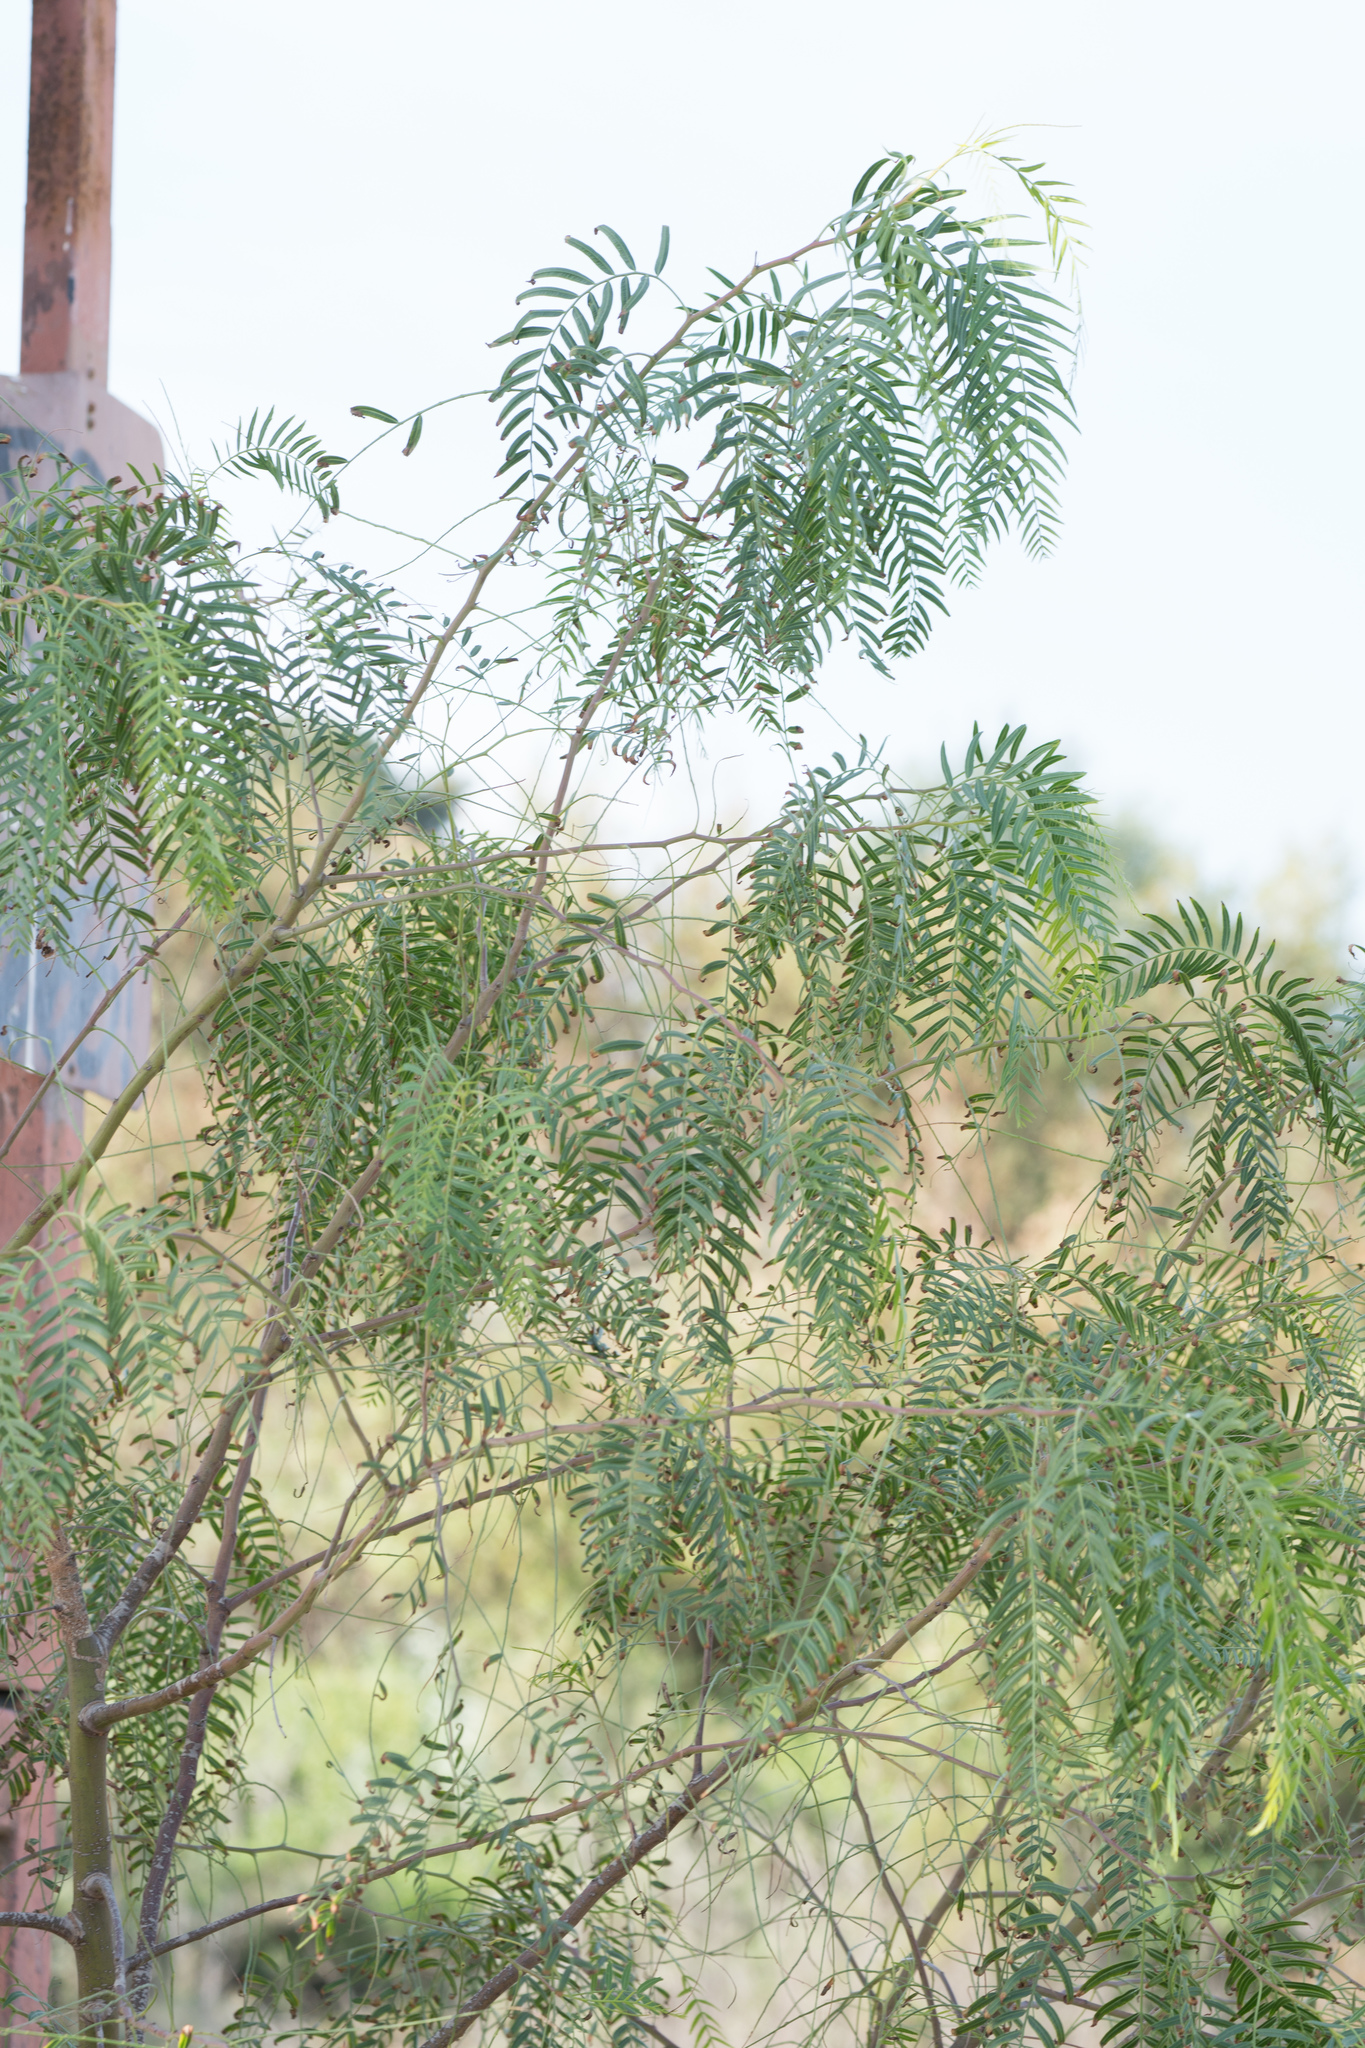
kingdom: Plantae
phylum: Tracheophyta
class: Magnoliopsida
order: Sapindales
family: Anacardiaceae
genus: Schinus
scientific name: Schinus molle
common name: Peruvian peppertree
